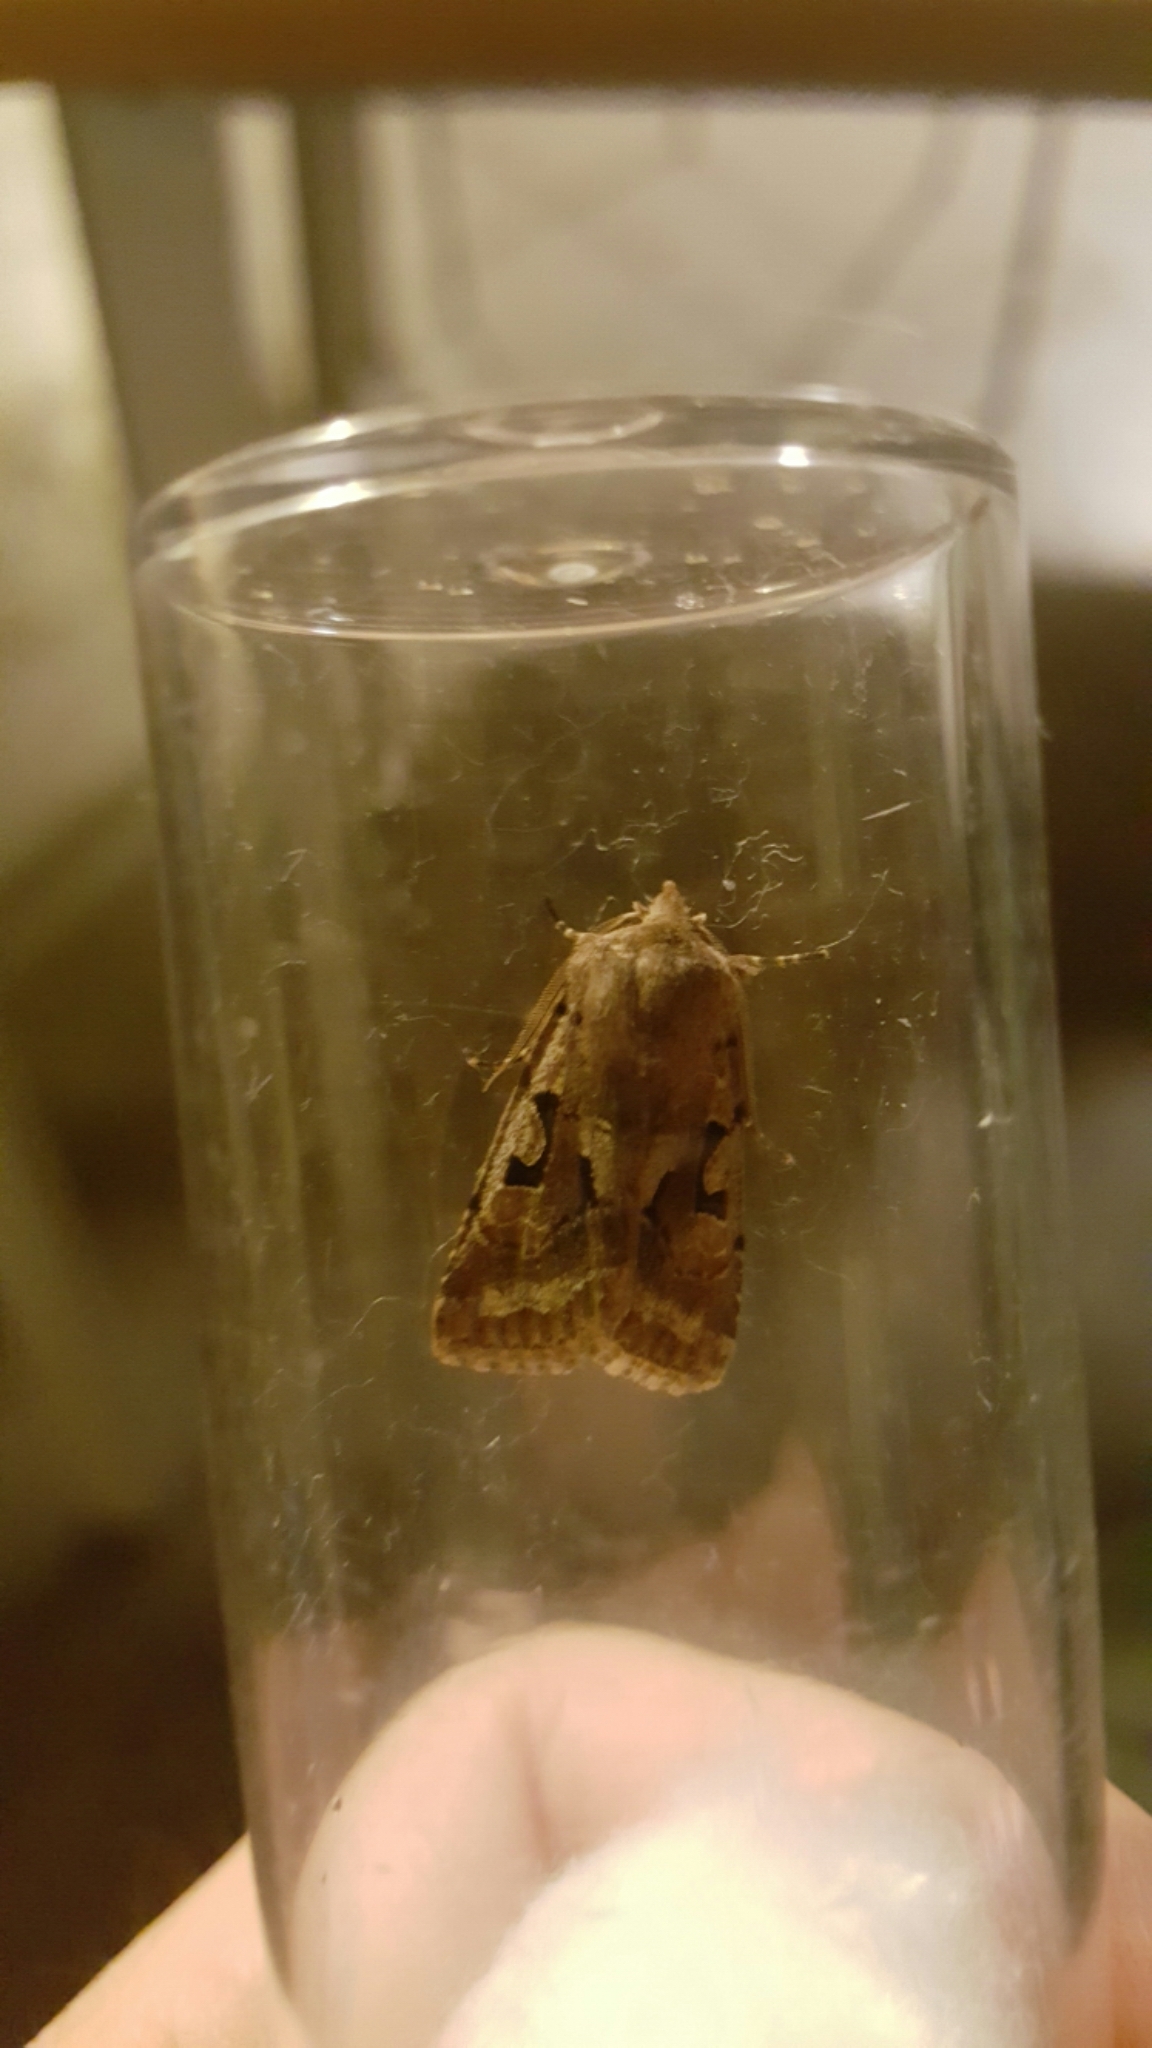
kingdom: Animalia
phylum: Arthropoda
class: Insecta
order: Lepidoptera
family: Noctuidae
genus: Orthosia
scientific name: Orthosia gothica
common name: Hebrew character
